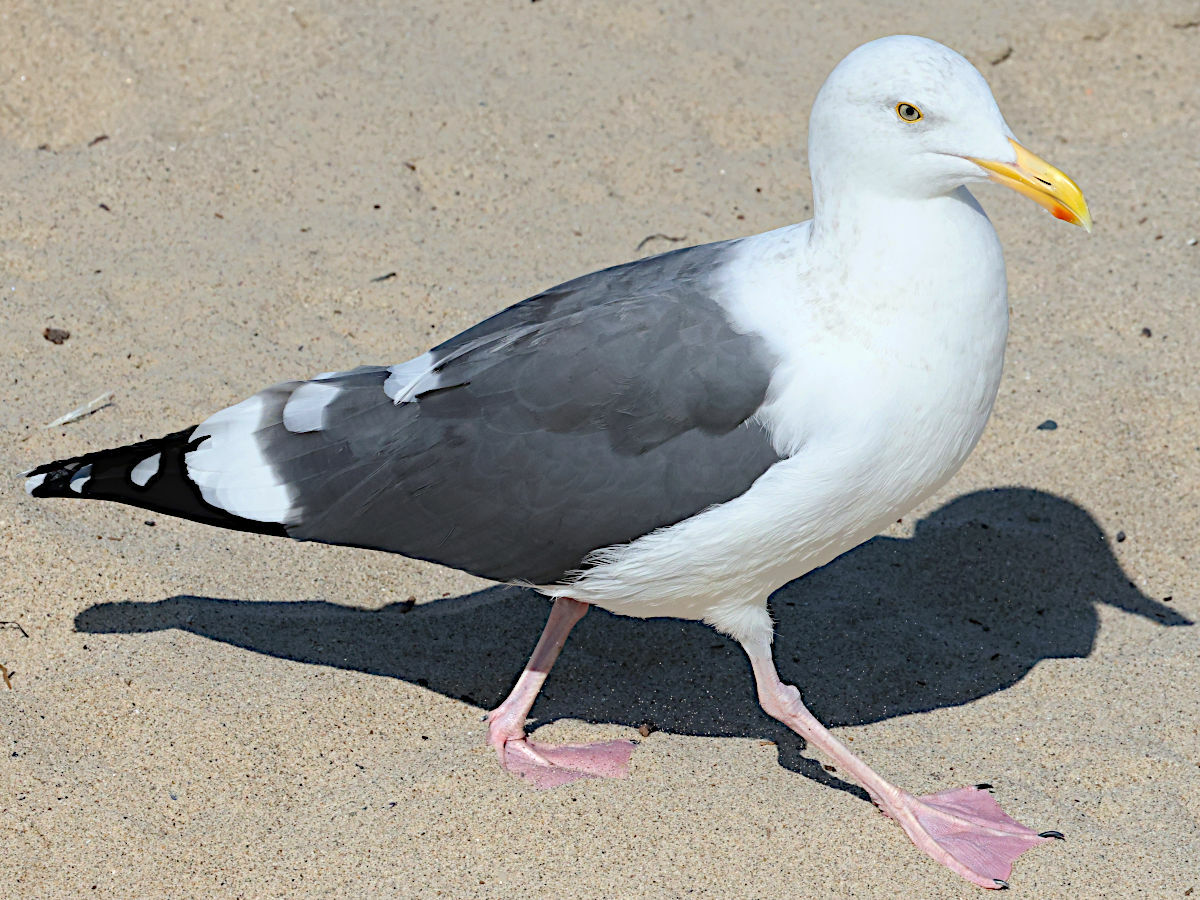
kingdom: Animalia
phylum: Chordata
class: Aves
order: Charadriiformes
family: Laridae
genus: Larus
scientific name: Larus occidentalis
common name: Western gull
